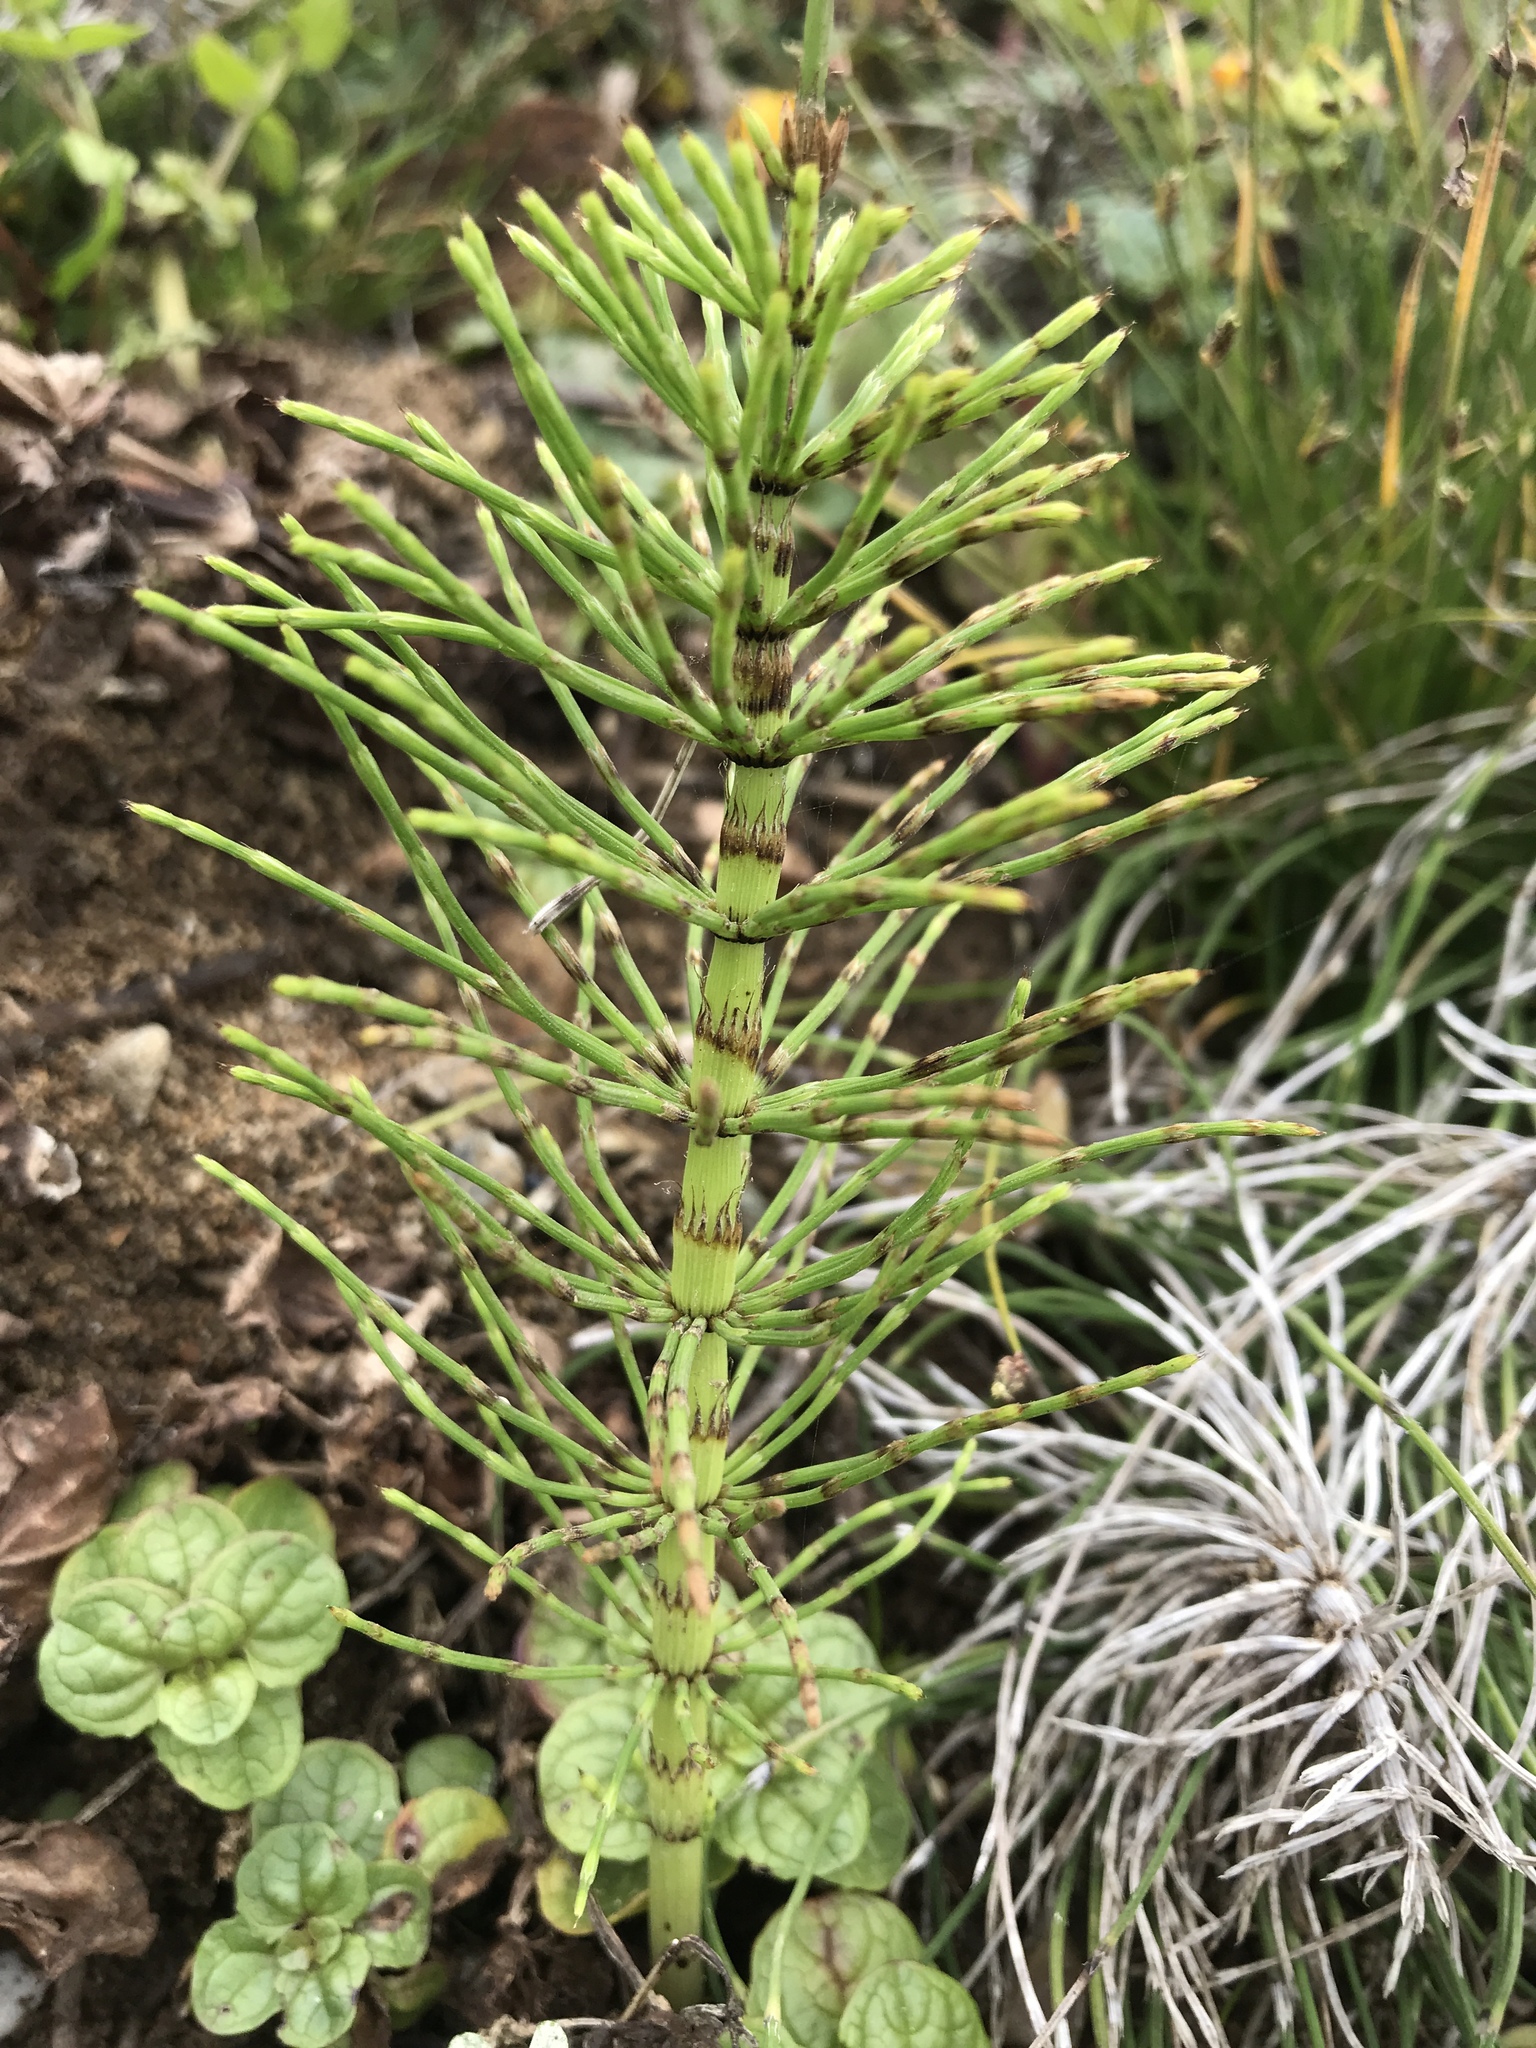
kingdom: Plantae
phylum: Tracheophyta
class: Polypodiopsida
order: Equisetales
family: Equisetaceae
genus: Equisetum
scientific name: Equisetum braunii
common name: Braun's horsetail
